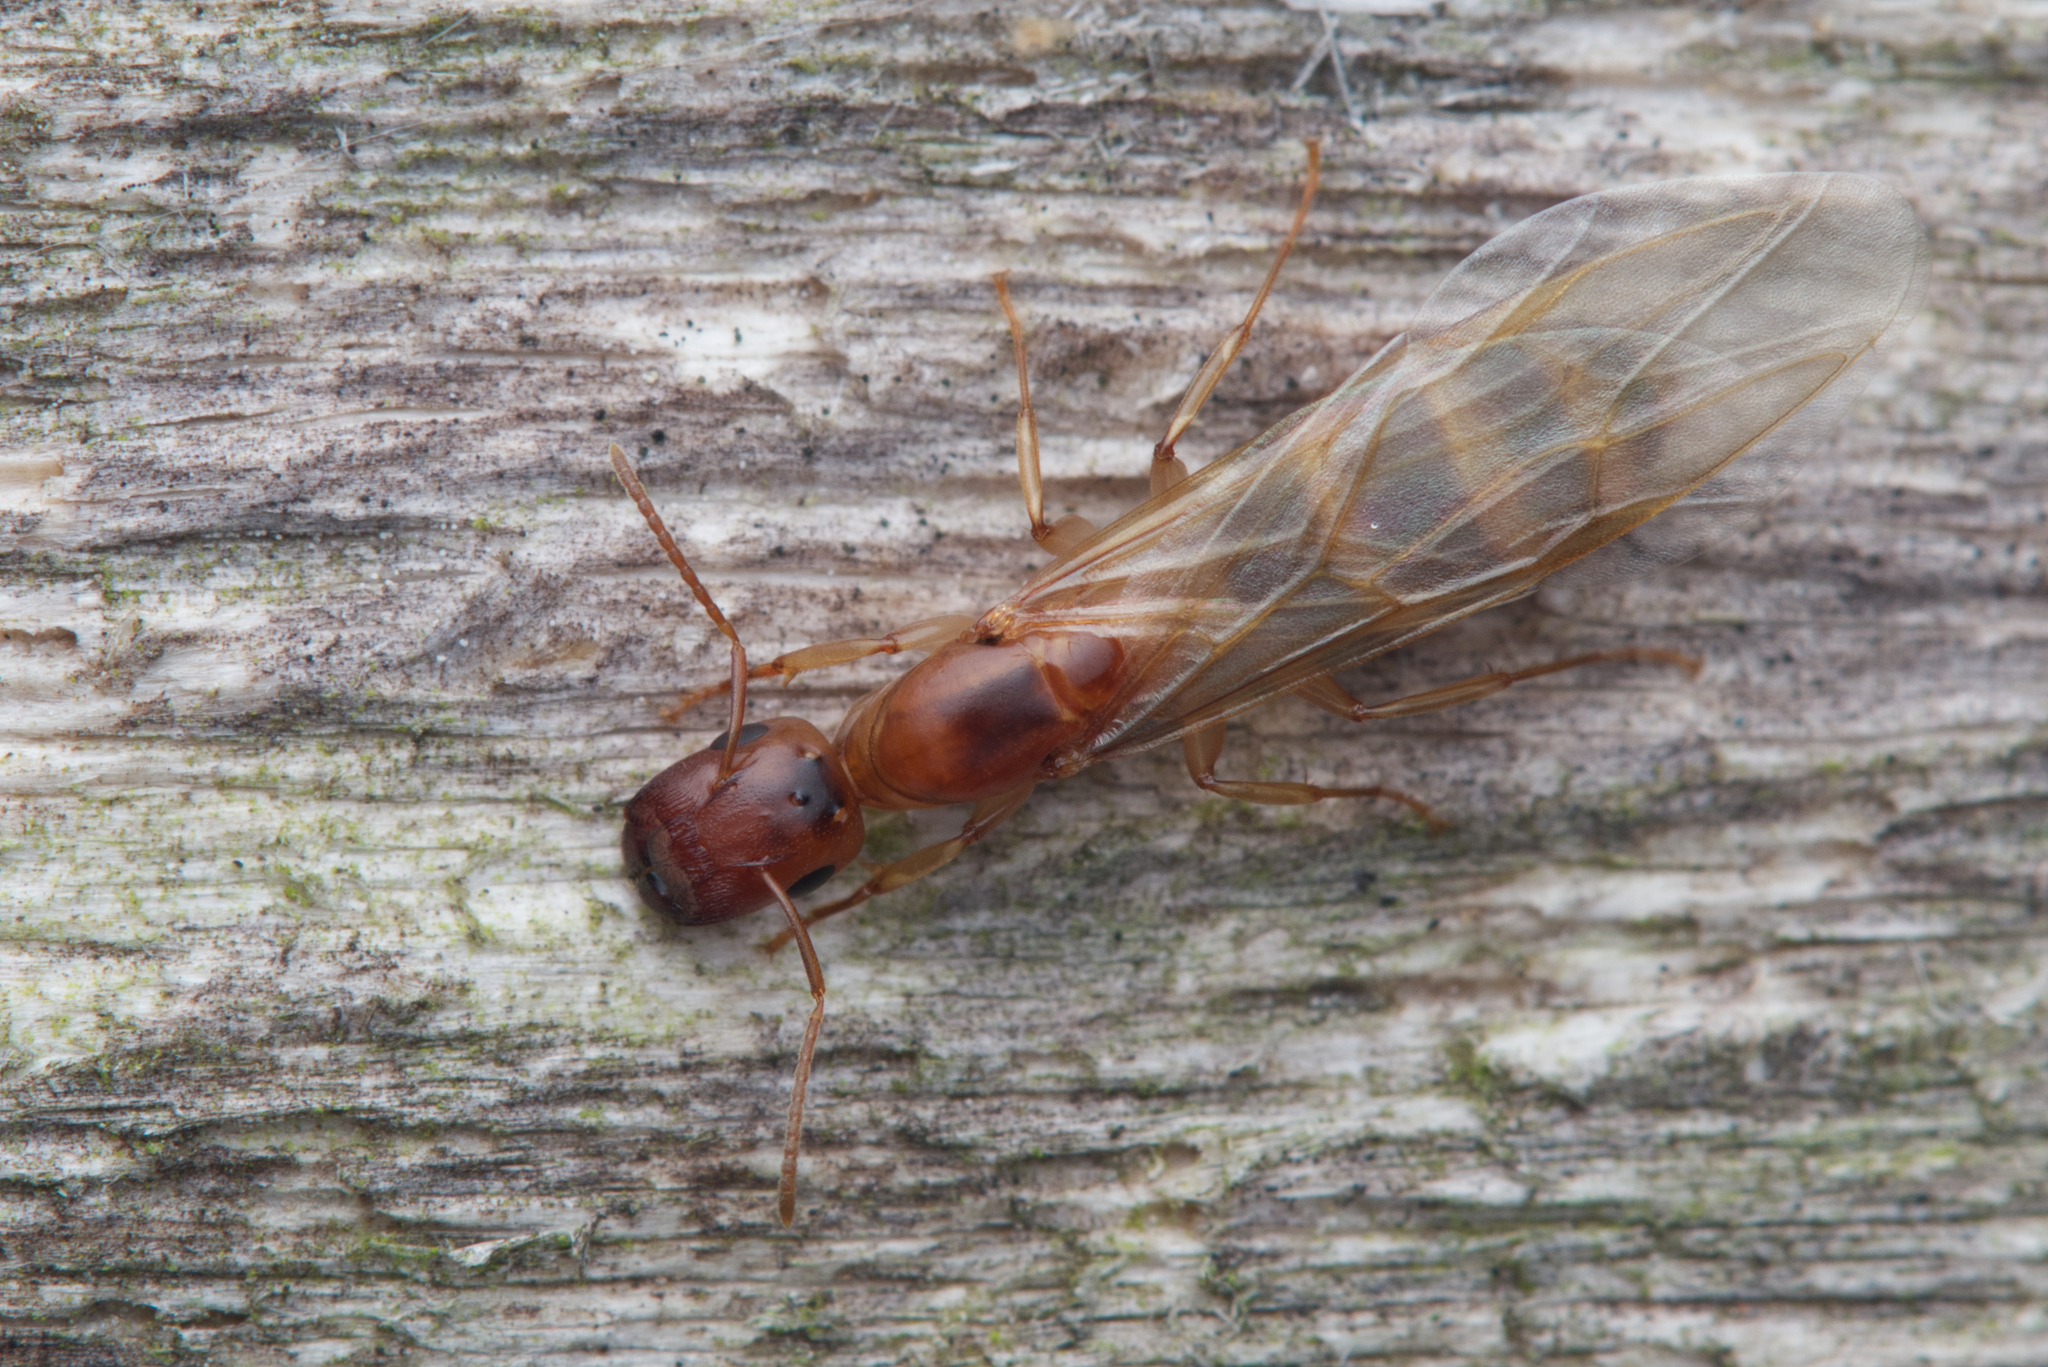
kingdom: Animalia
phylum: Arthropoda
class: Insecta
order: Hymenoptera
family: Formicidae
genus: Colobopsis
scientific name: Colobopsis
